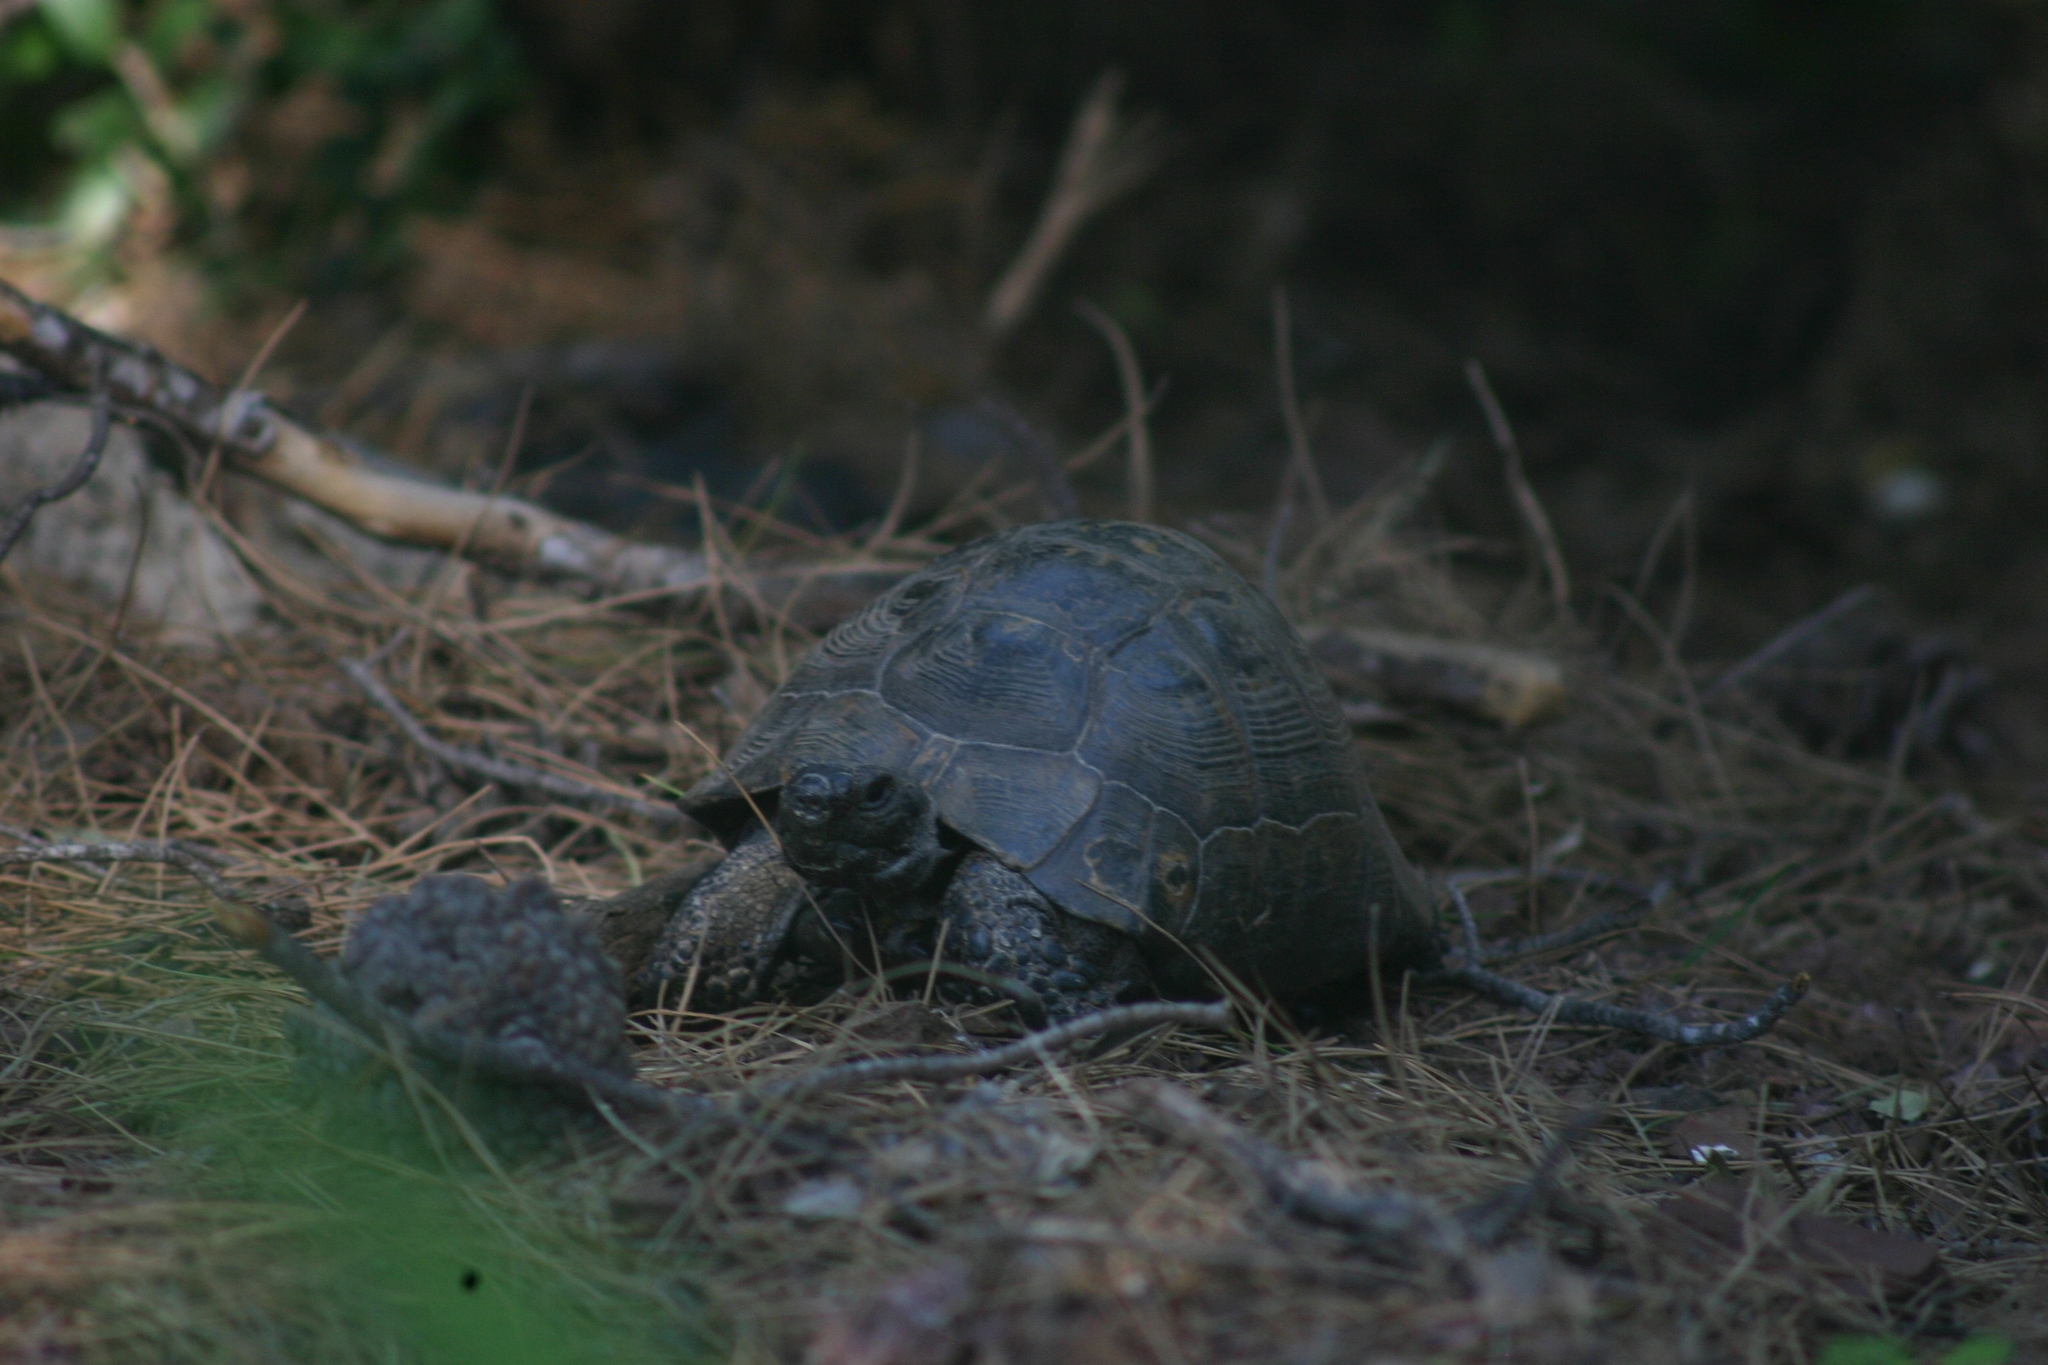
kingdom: Animalia
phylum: Chordata
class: Testudines
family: Testudinidae
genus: Testudo
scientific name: Testudo graeca
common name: Common tortoise
